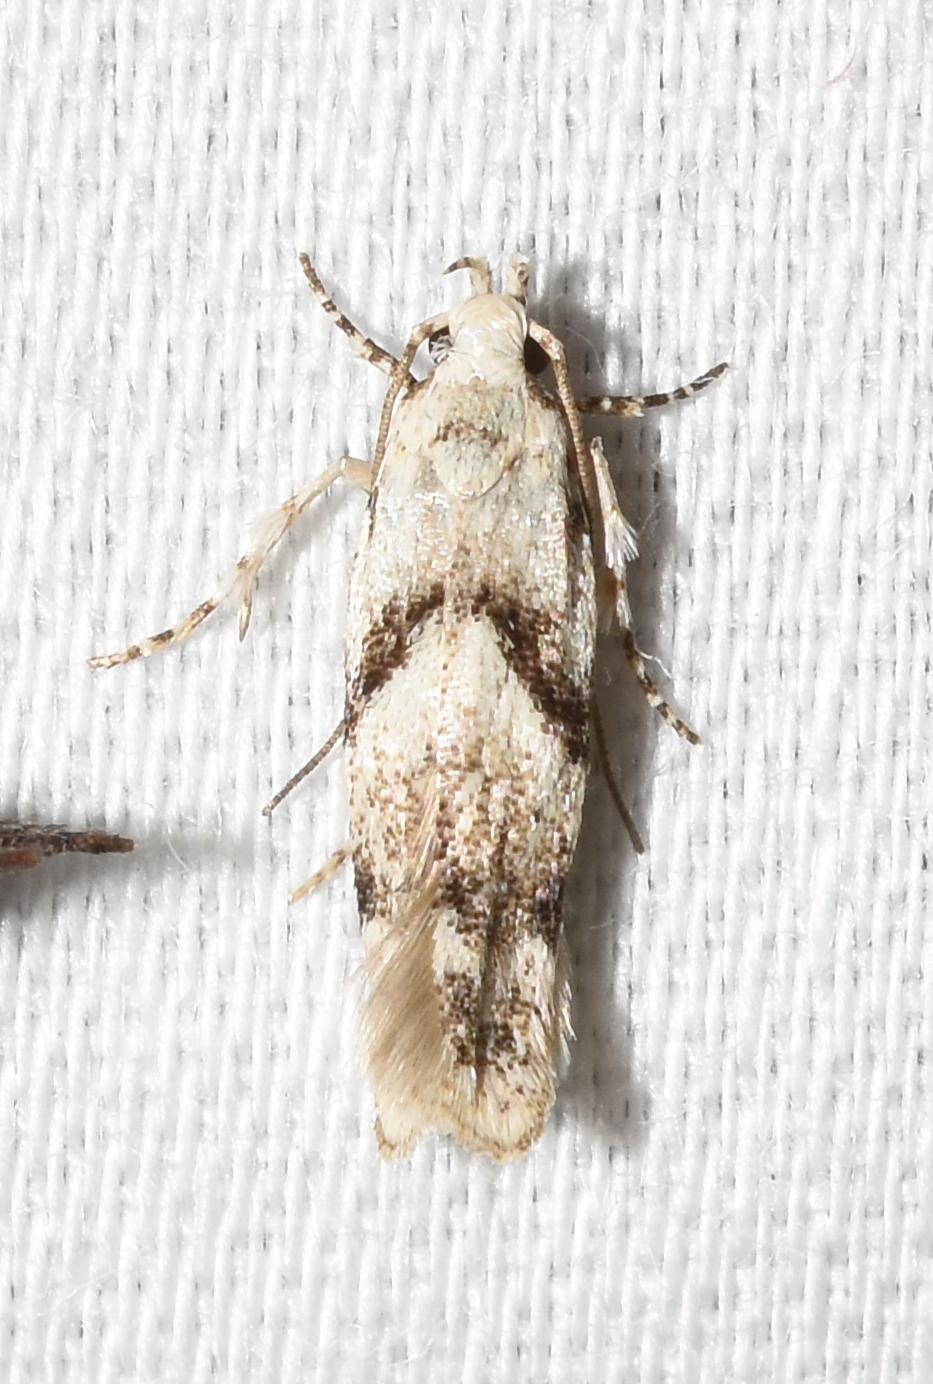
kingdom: Animalia
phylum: Arthropoda
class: Insecta
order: Lepidoptera
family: Gelechiidae
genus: Arogalea
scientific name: Arogalea cristifasciella
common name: White stripe-backed moth
